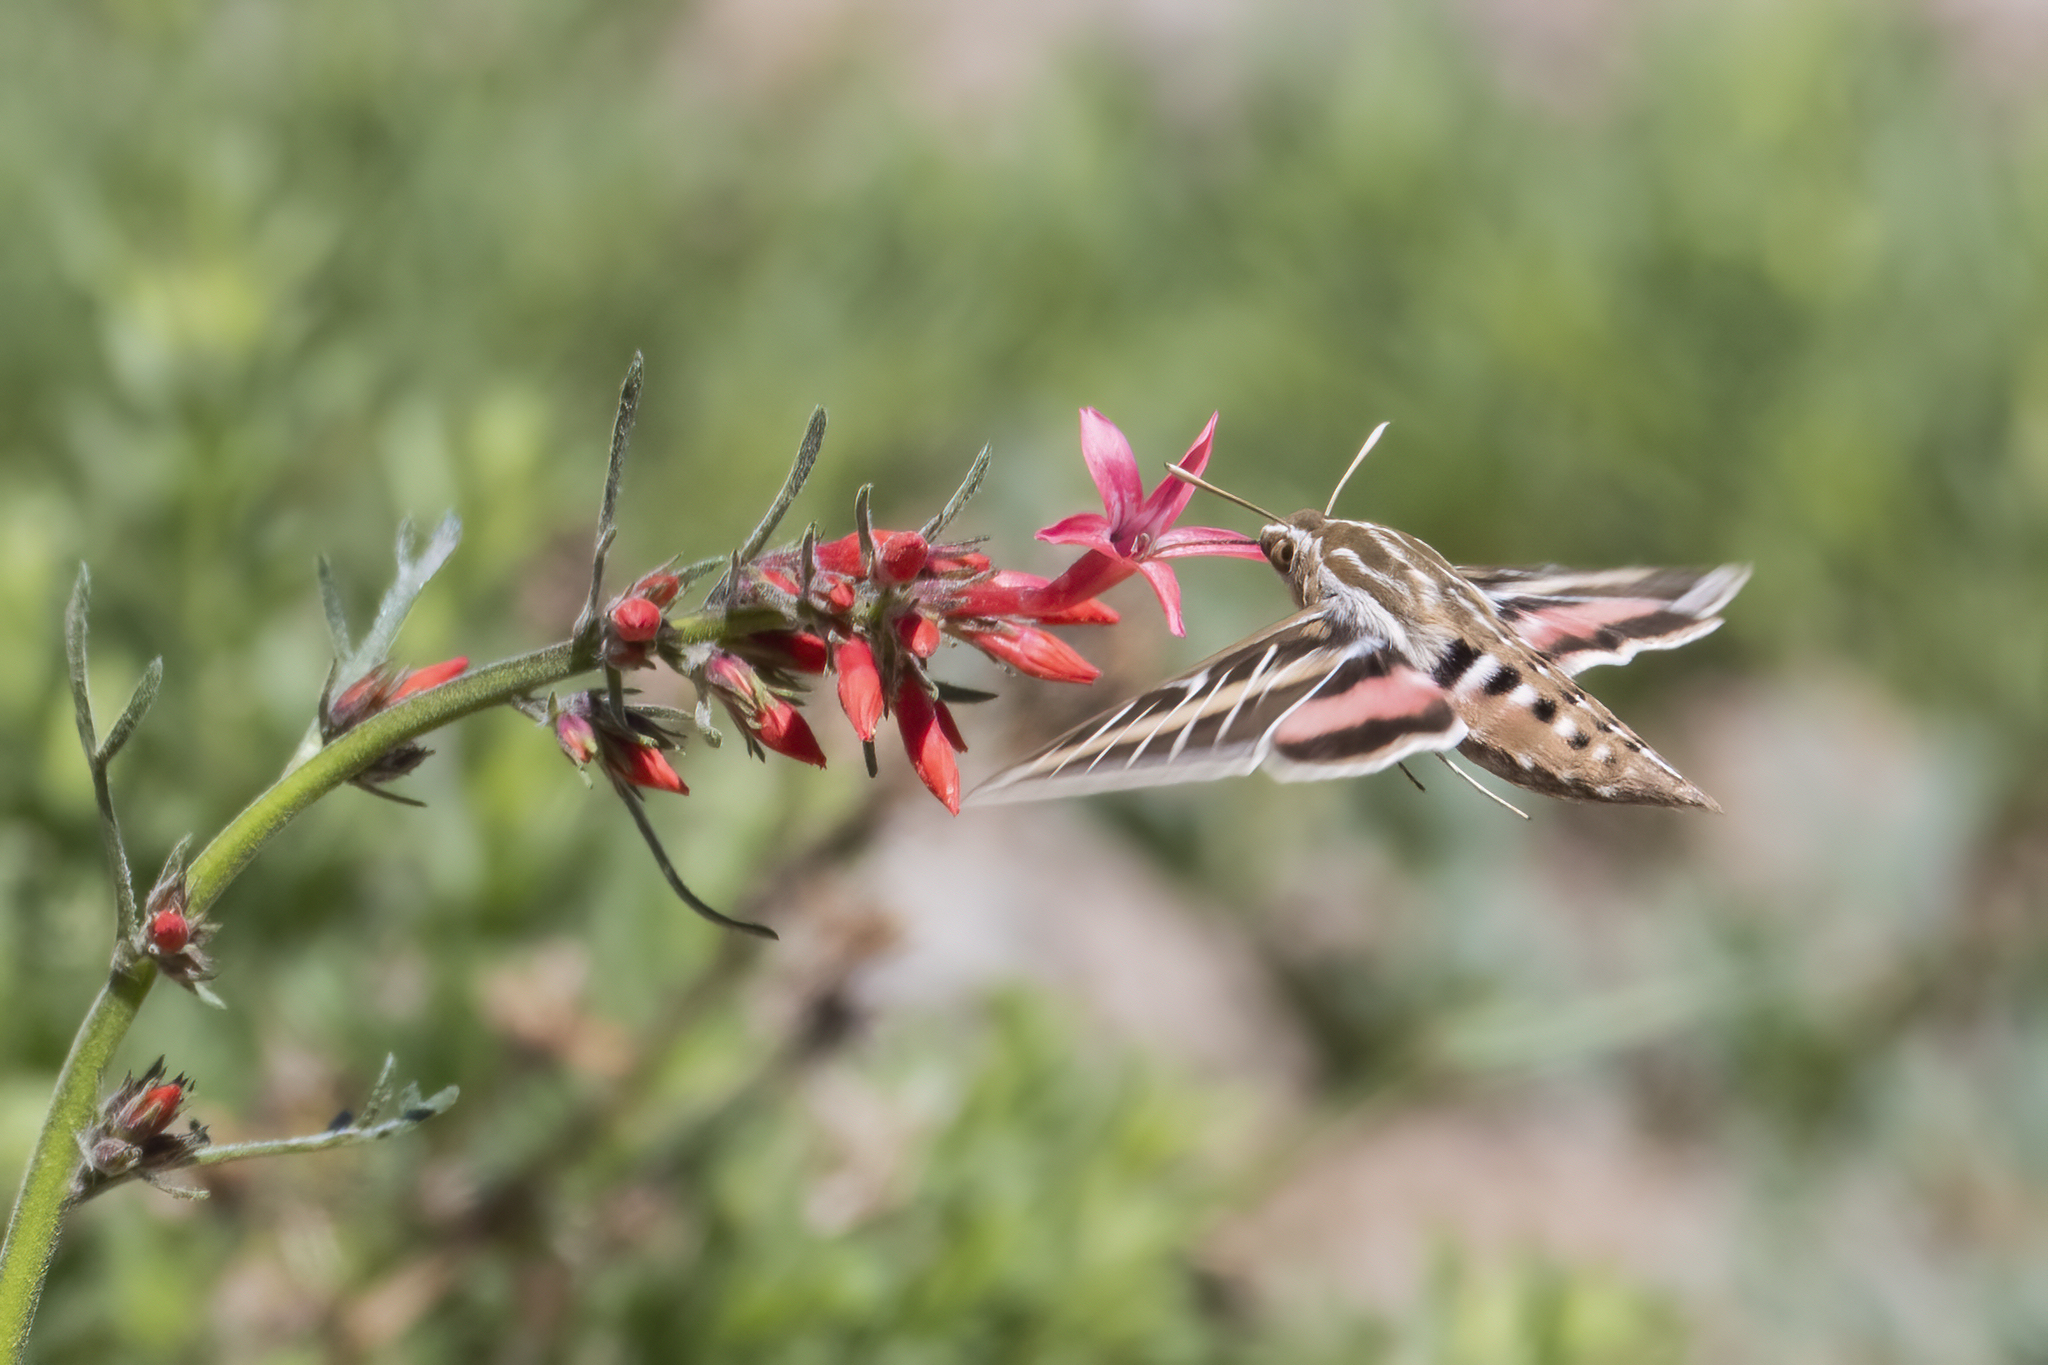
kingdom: Animalia
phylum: Arthropoda
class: Insecta
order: Lepidoptera
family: Sphingidae
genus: Hyles
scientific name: Hyles lineata
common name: White-lined sphinx
